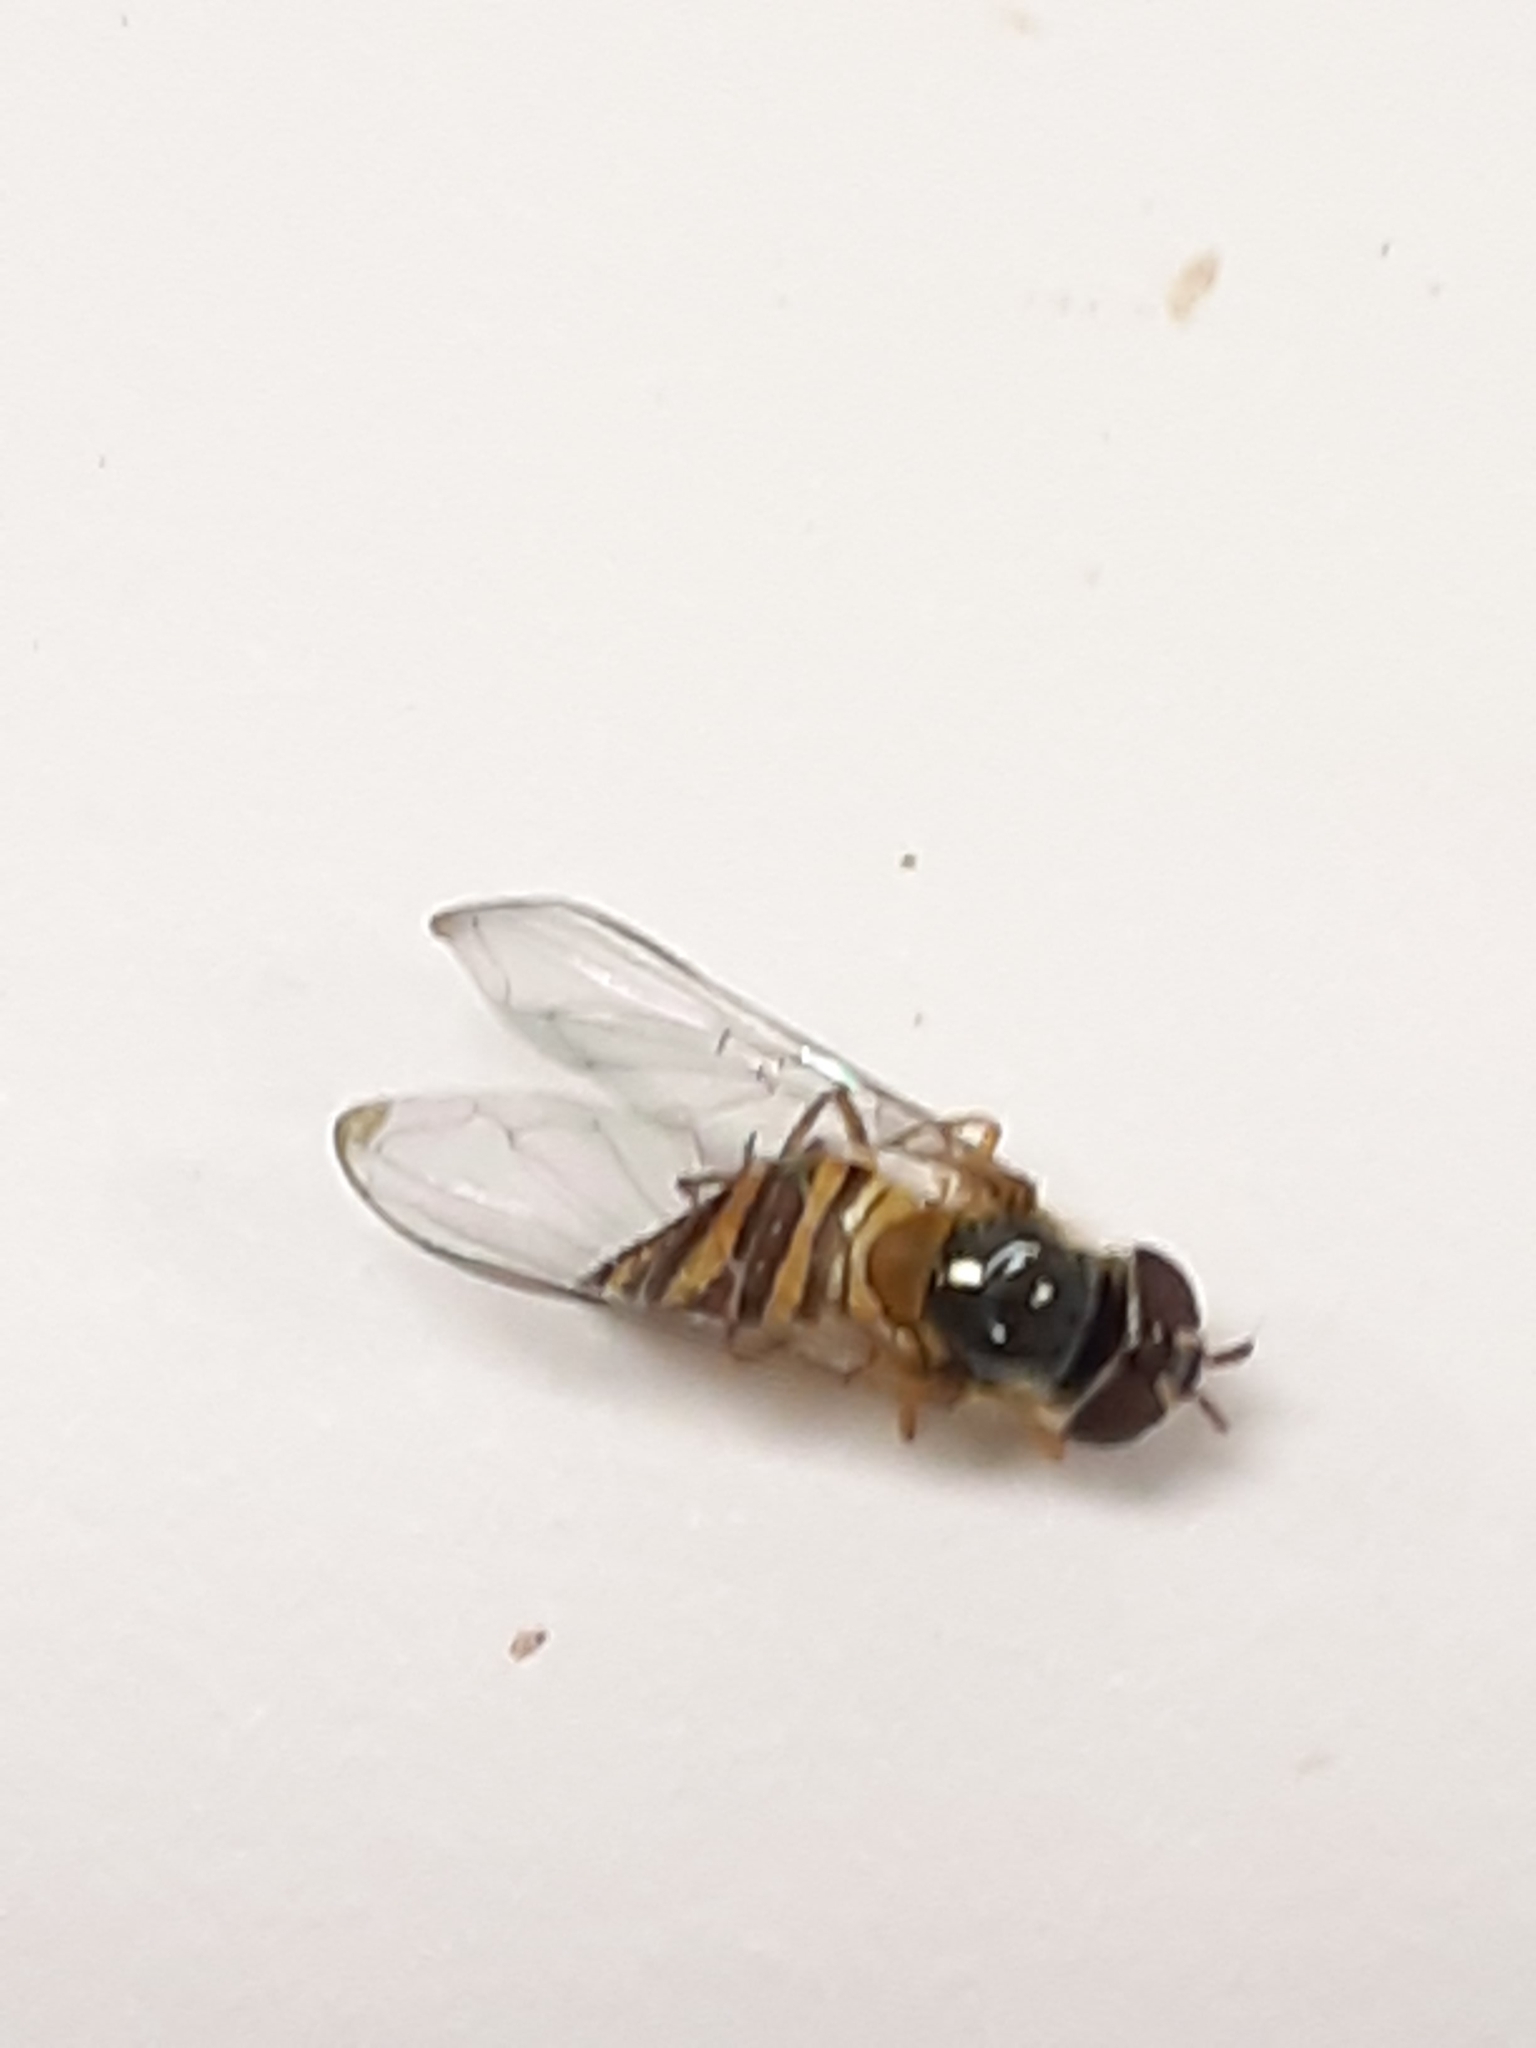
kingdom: Animalia
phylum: Arthropoda
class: Insecta
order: Diptera
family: Syrphidae
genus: Allograpta
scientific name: Allograpta obliqua
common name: Common oblique syrphid
